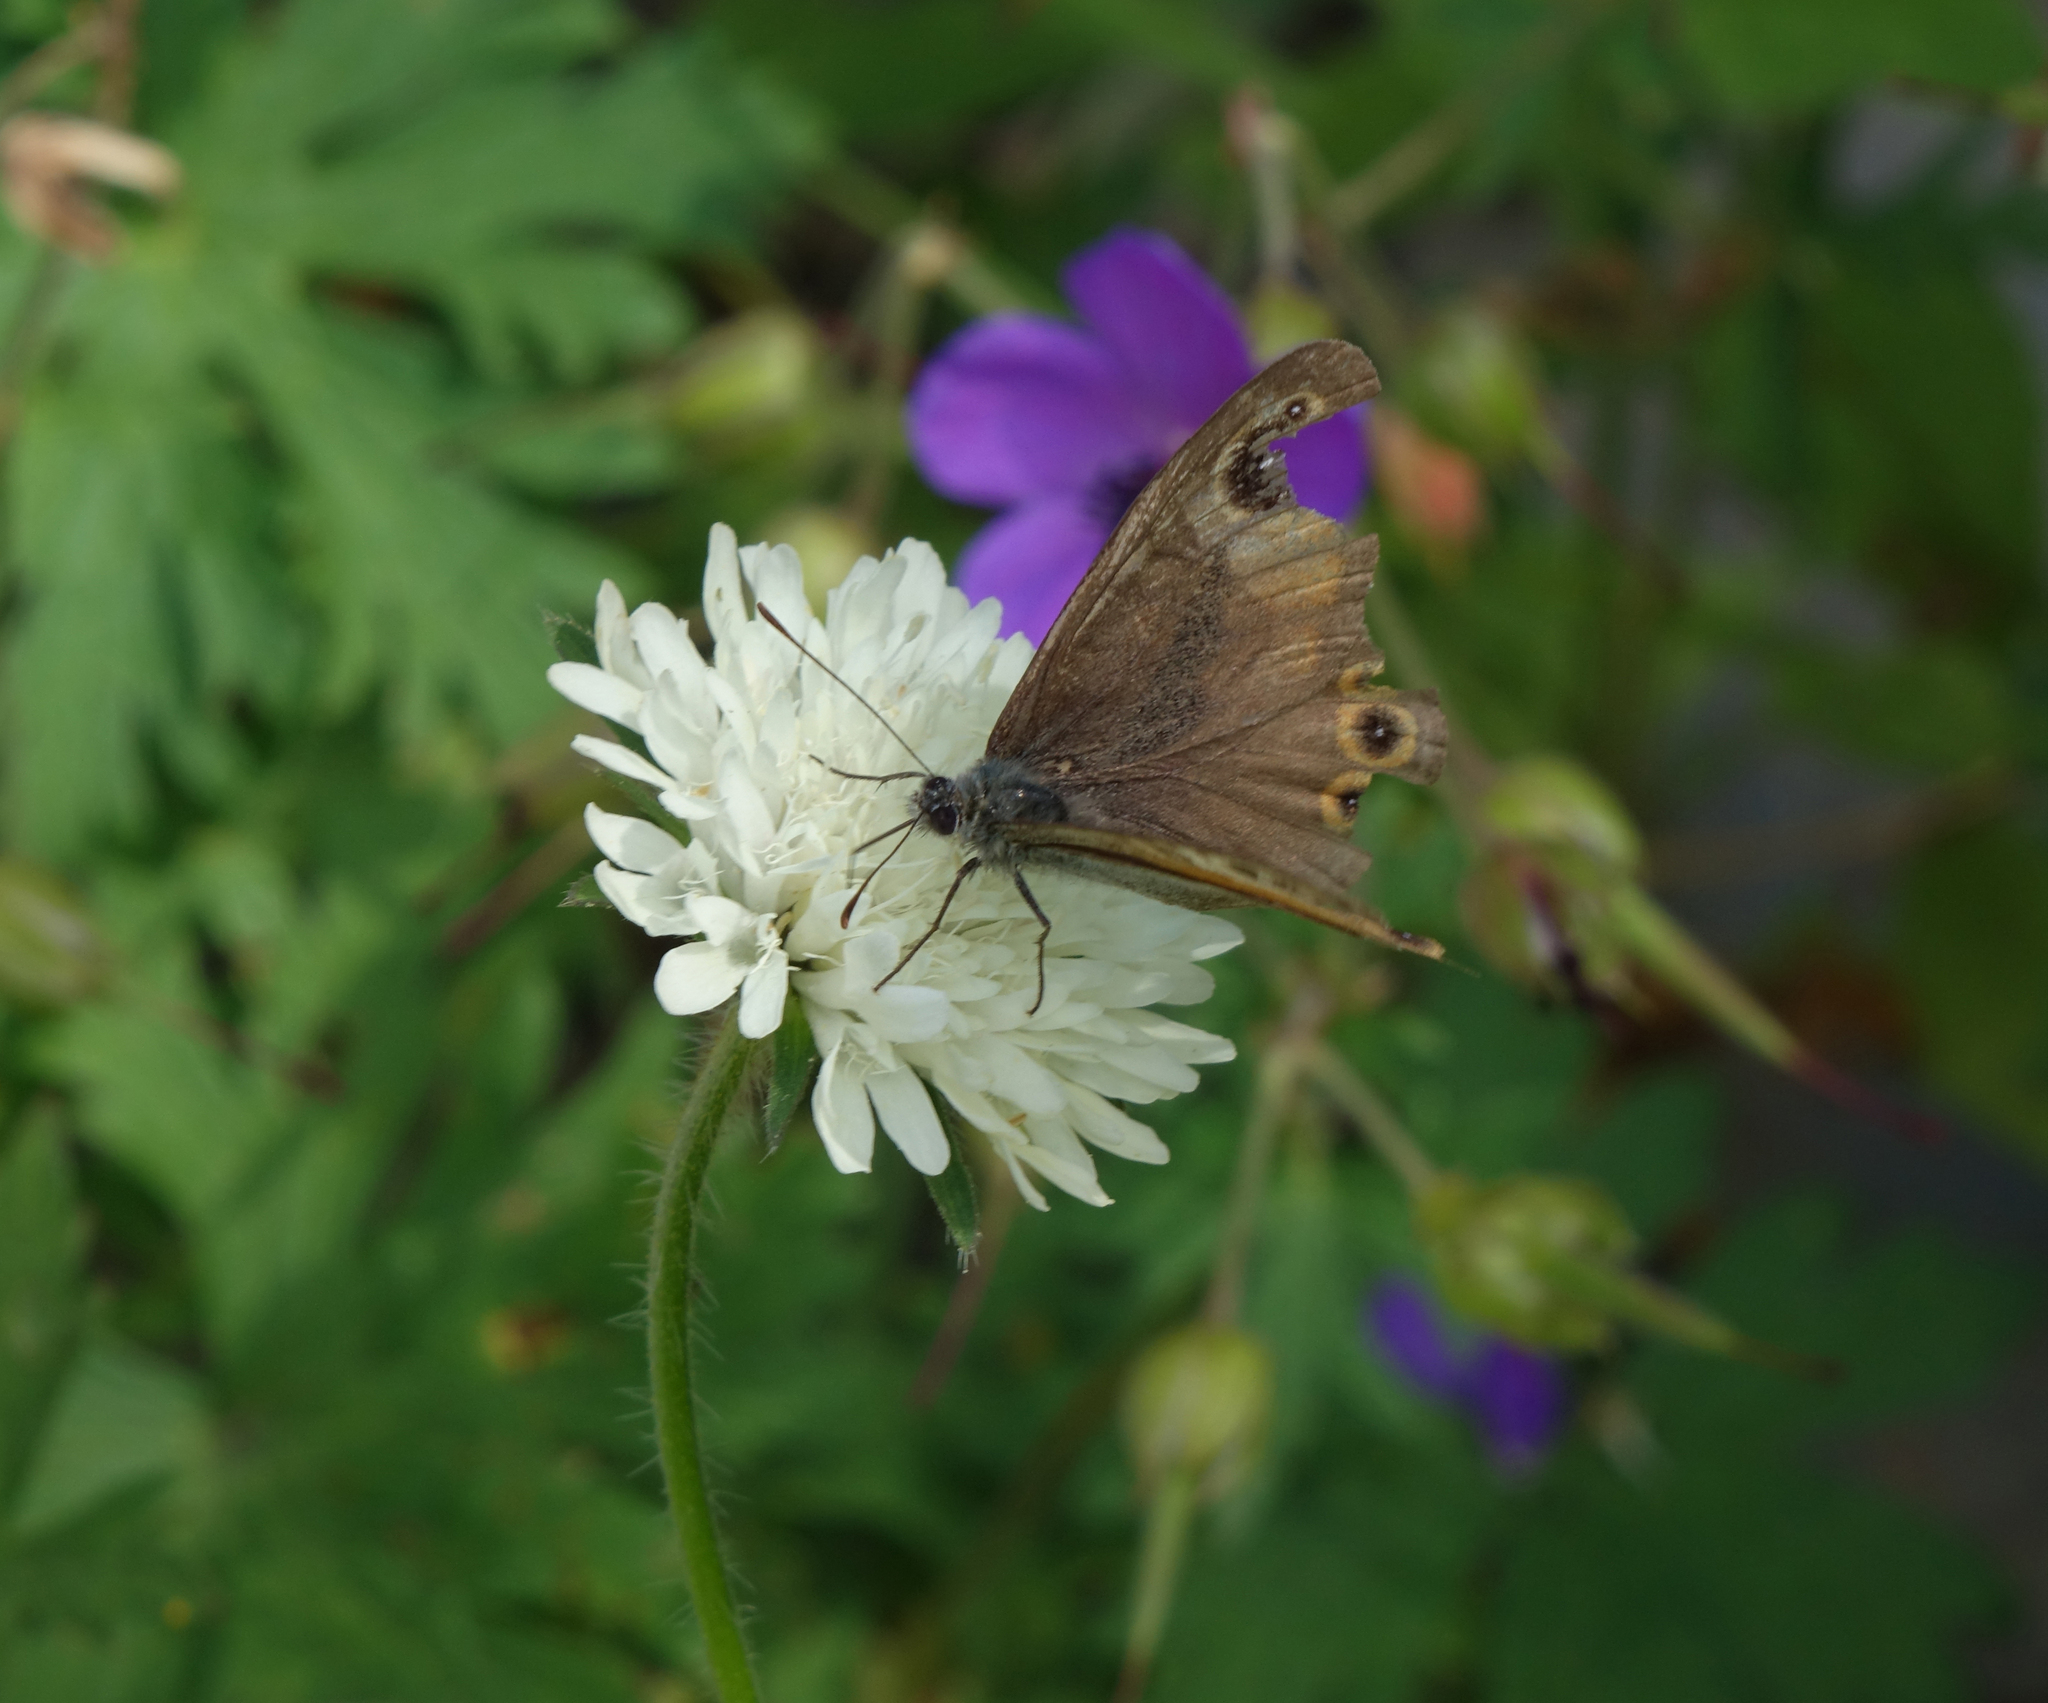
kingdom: Animalia
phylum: Arthropoda
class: Insecta
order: Lepidoptera
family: Nymphalidae
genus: Pararge
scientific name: Pararge Lasiommata maera
